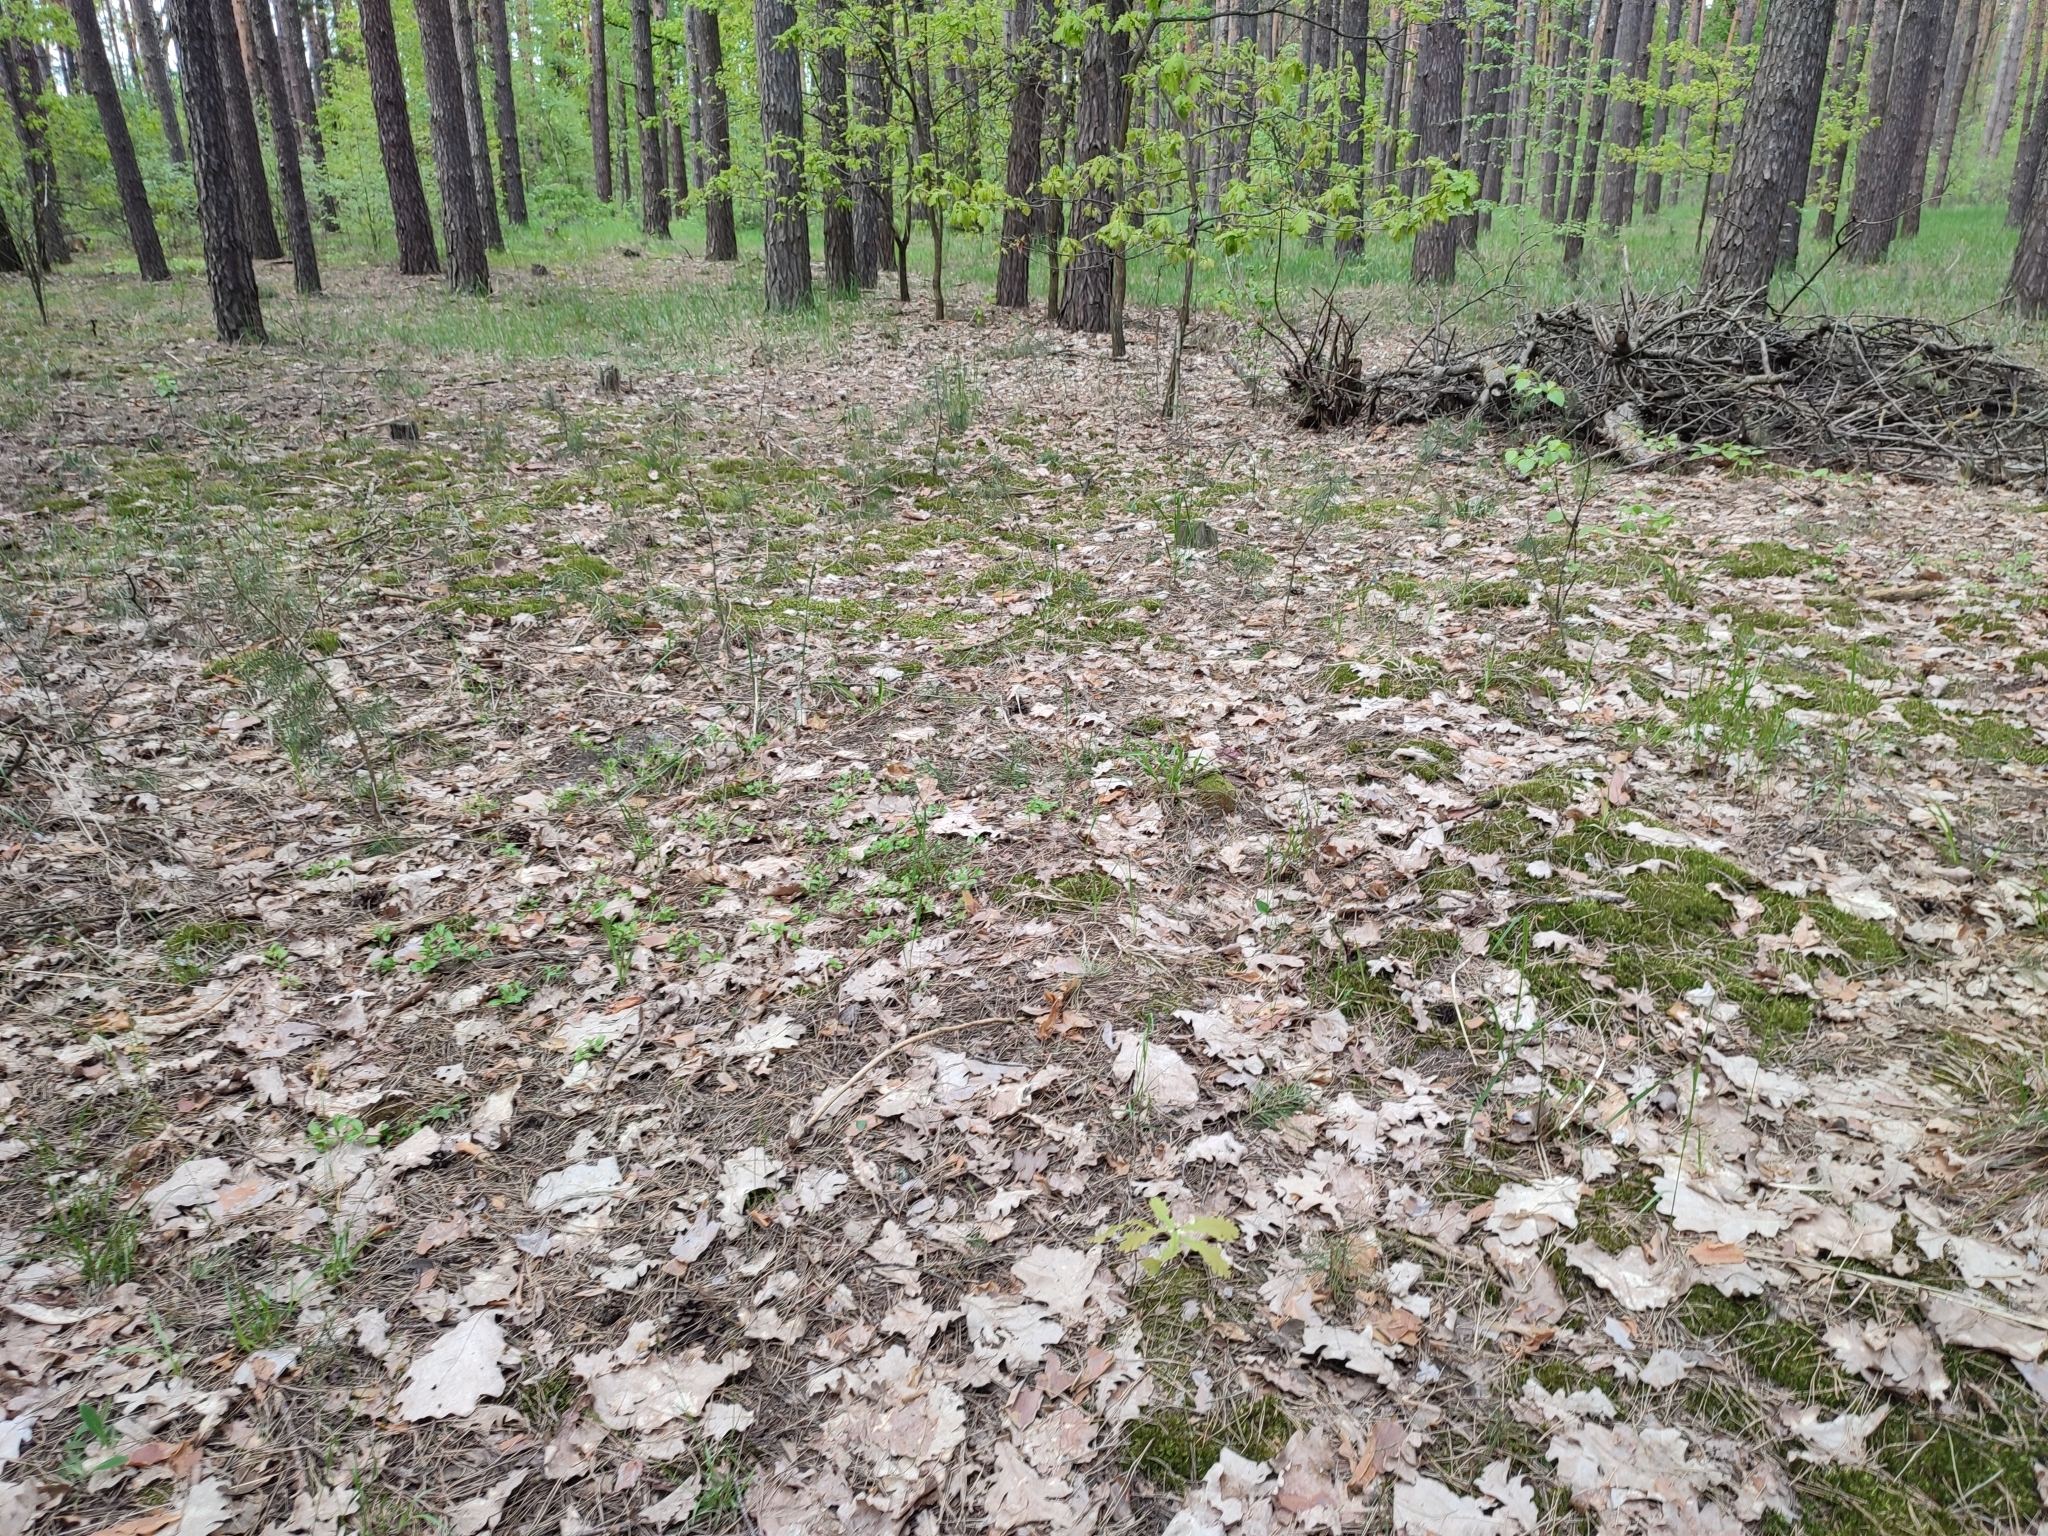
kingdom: Plantae
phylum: Tracheophyta
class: Magnoliopsida
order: Fagales
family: Fagaceae
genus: Quercus
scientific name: Quercus robur
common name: Pedunculate oak
